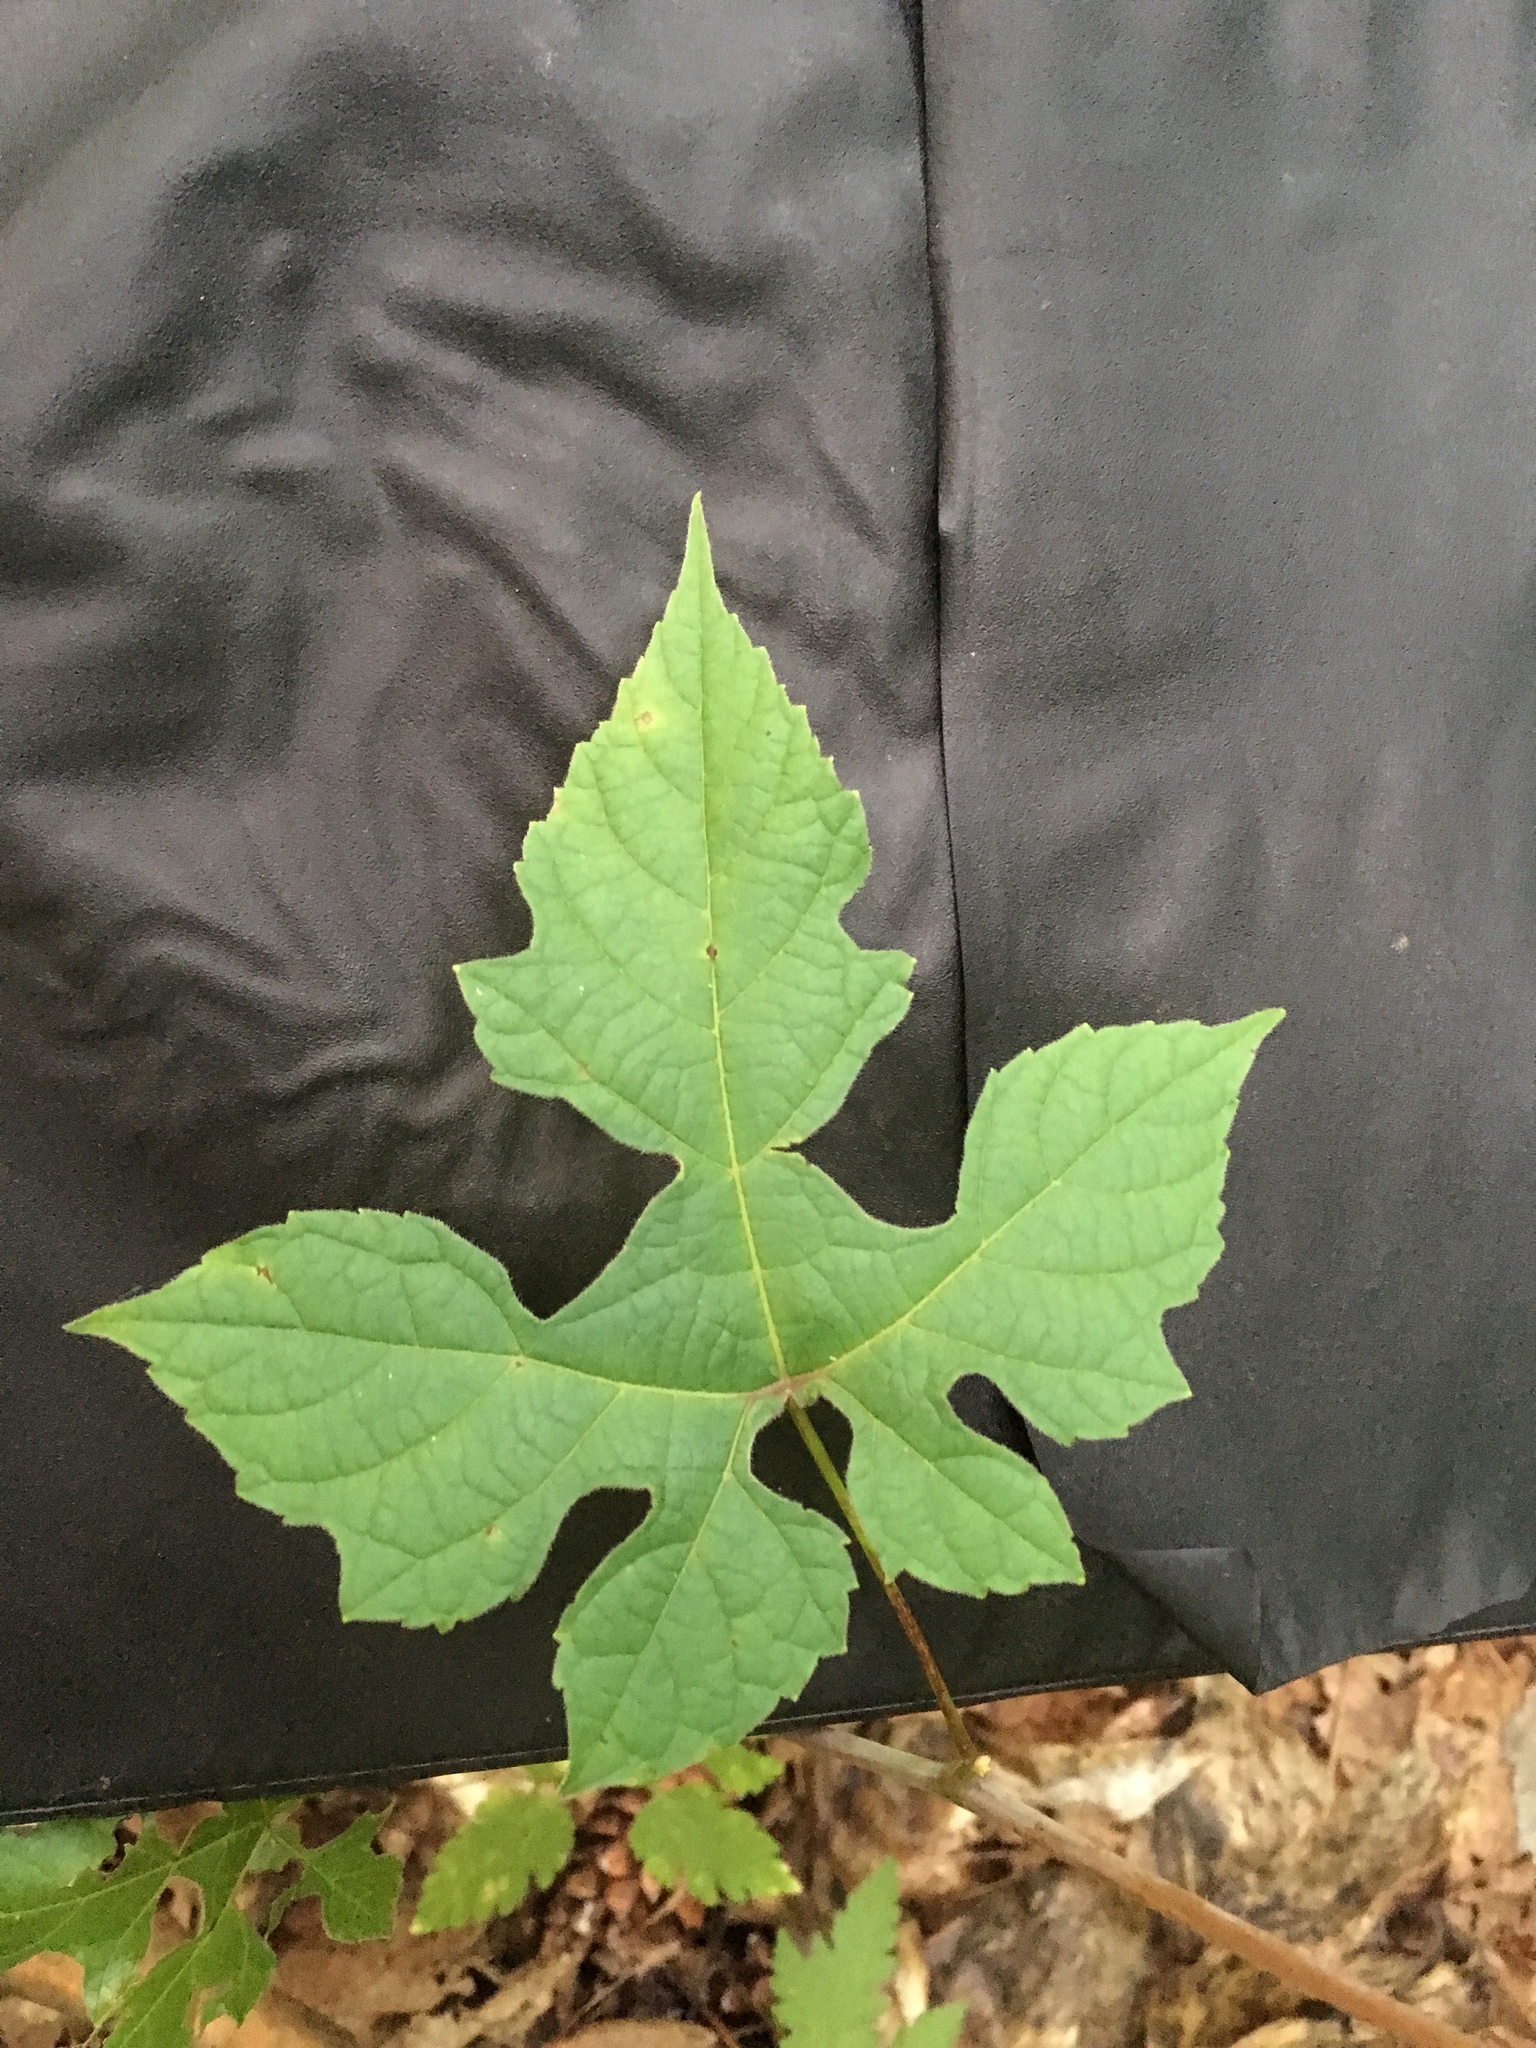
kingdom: Plantae
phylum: Tracheophyta
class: Magnoliopsida
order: Vitales
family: Vitaceae
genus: Vitis
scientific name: Vitis aestivalis
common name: Pigeon grape
